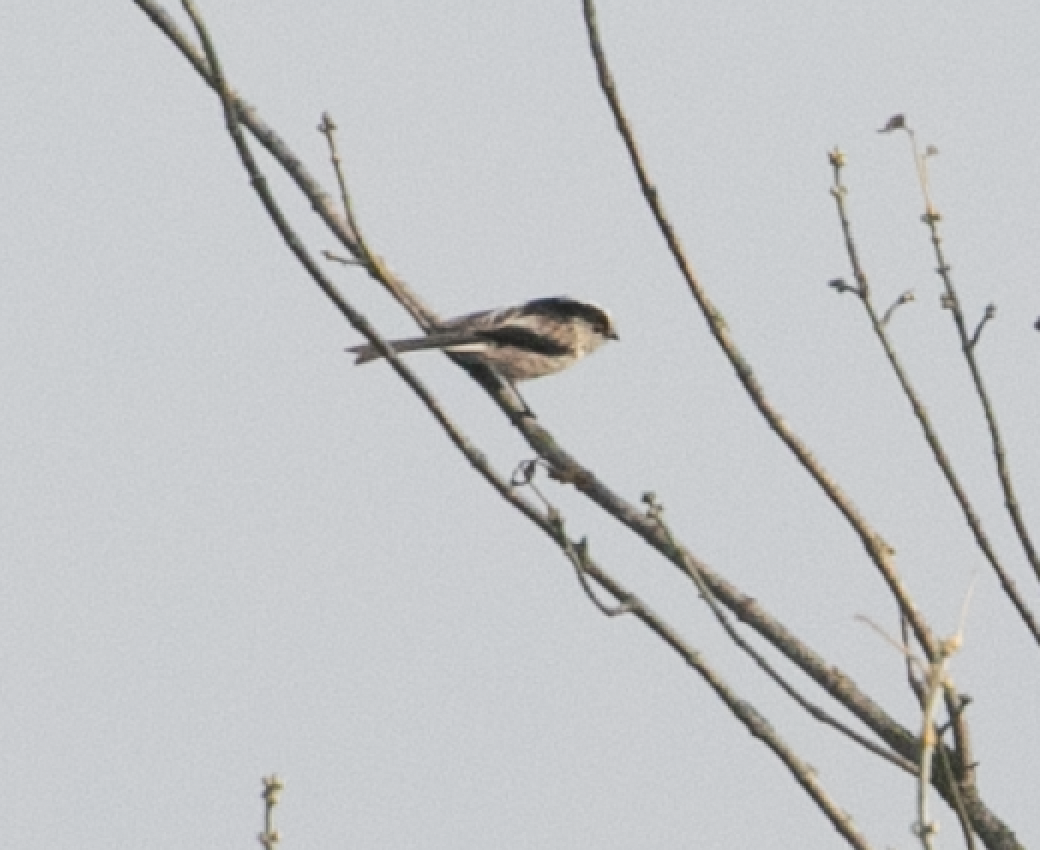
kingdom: Animalia
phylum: Chordata
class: Aves
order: Passeriformes
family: Aegithalidae
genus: Aegithalos
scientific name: Aegithalos caudatus
